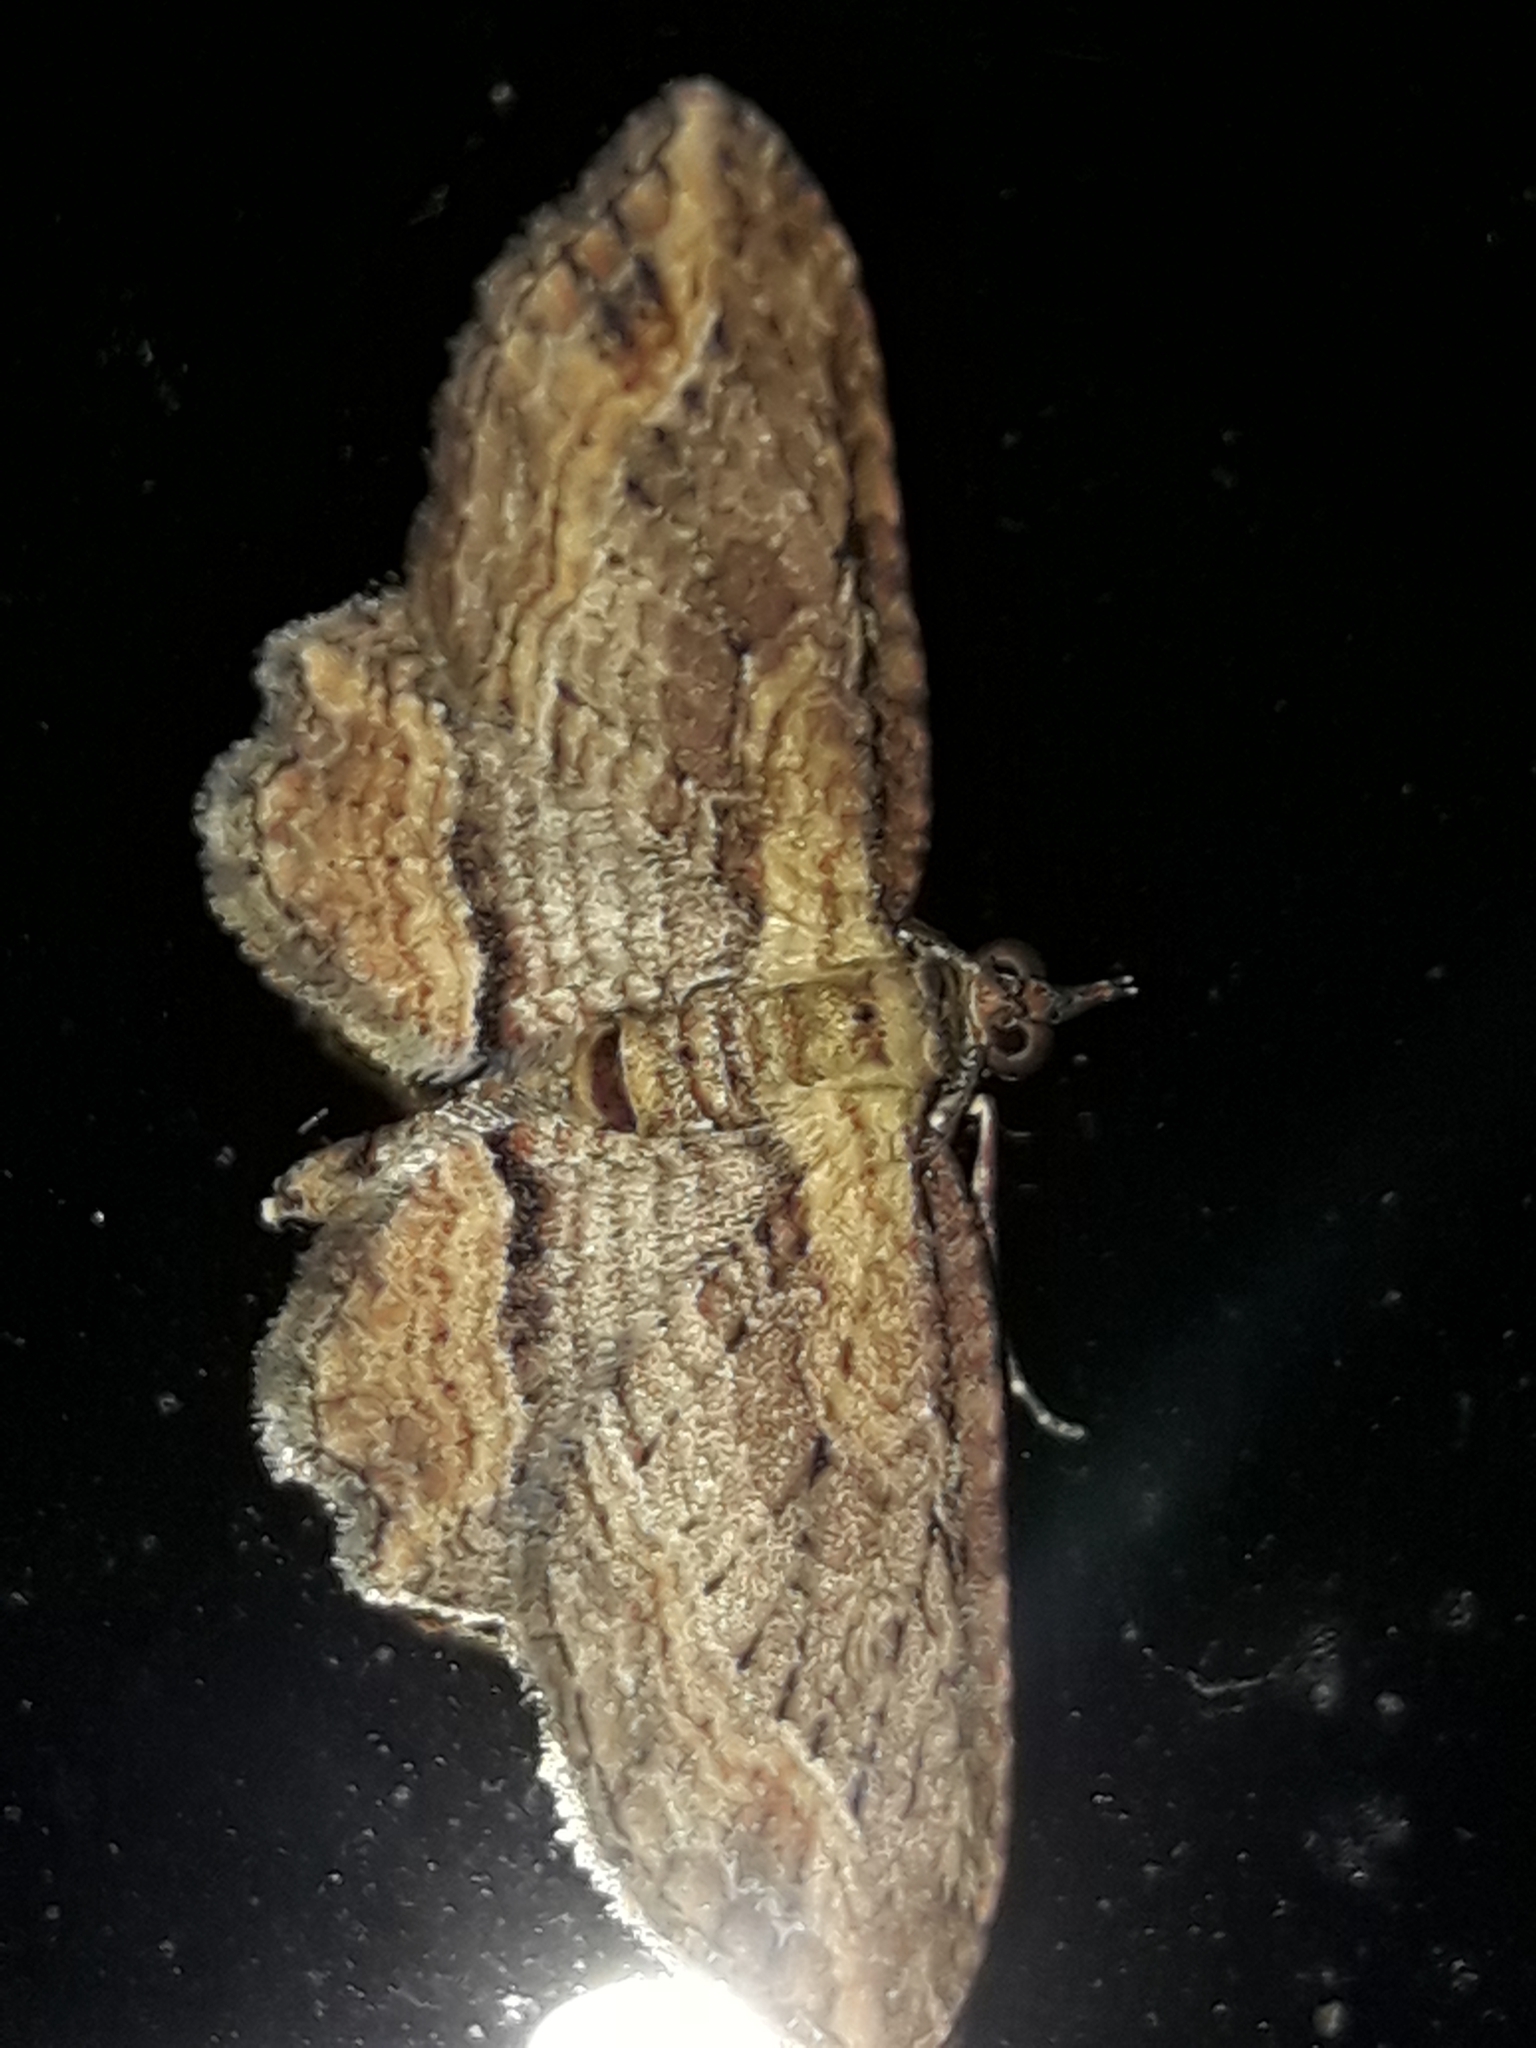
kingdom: Animalia
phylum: Arthropoda
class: Insecta
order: Lepidoptera
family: Geometridae
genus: Chloroclystis
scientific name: Chloroclystis filata
